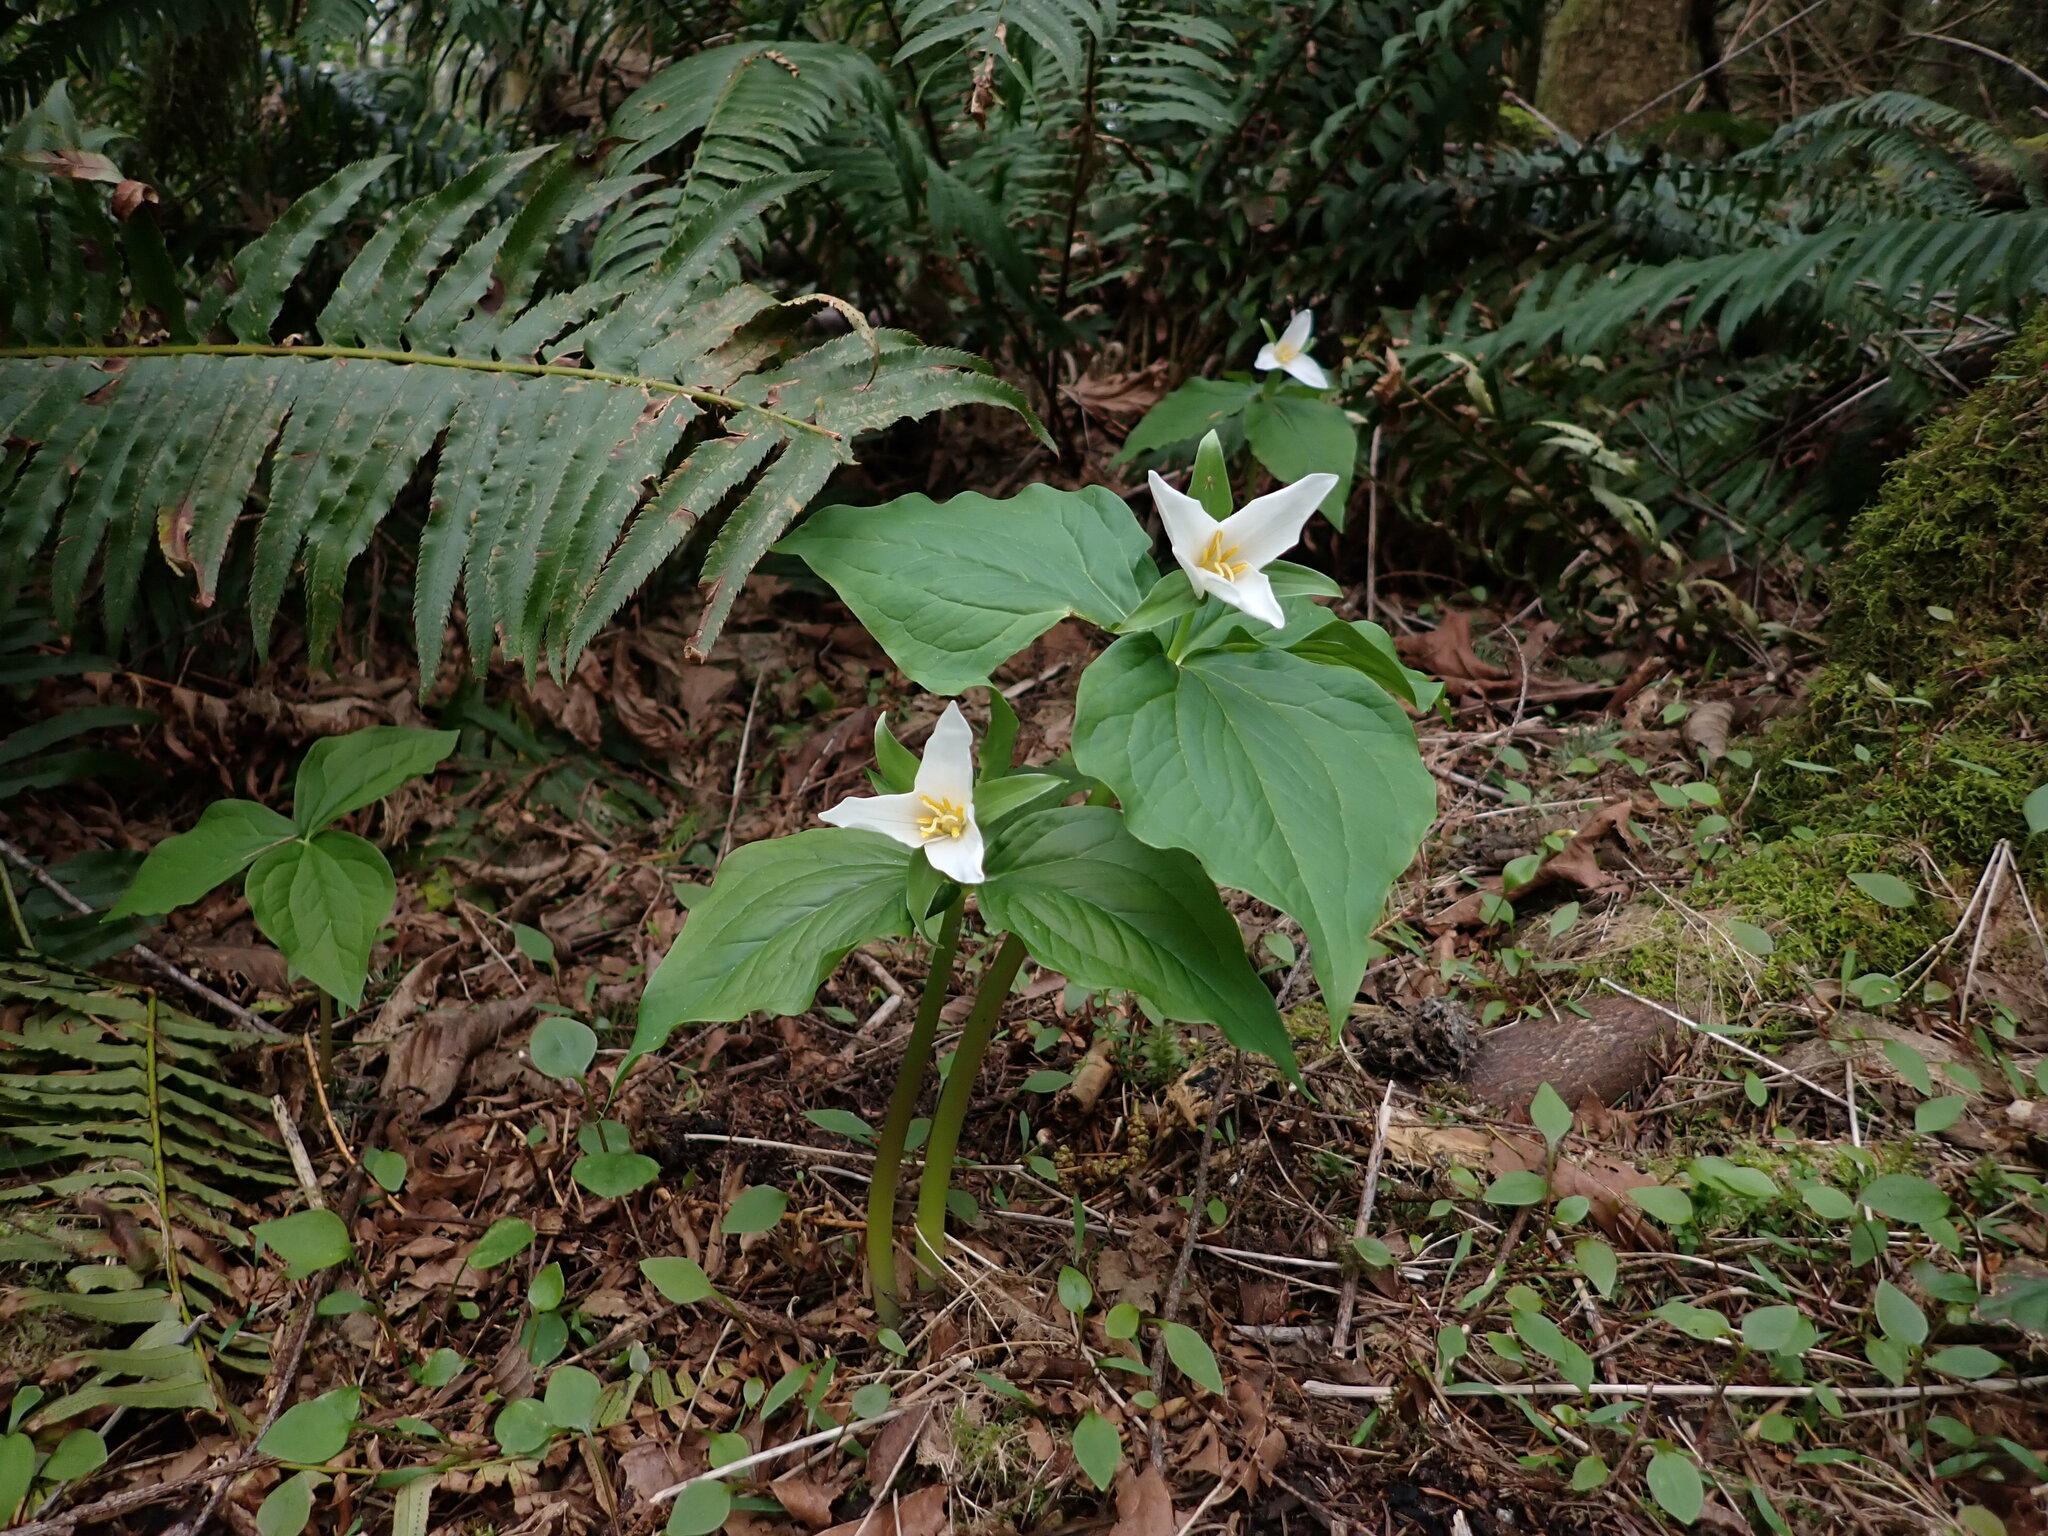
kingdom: Plantae
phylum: Tracheophyta
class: Liliopsida
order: Liliales
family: Melanthiaceae
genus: Trillium
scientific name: Trillium ovatum
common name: Pacific trillium
